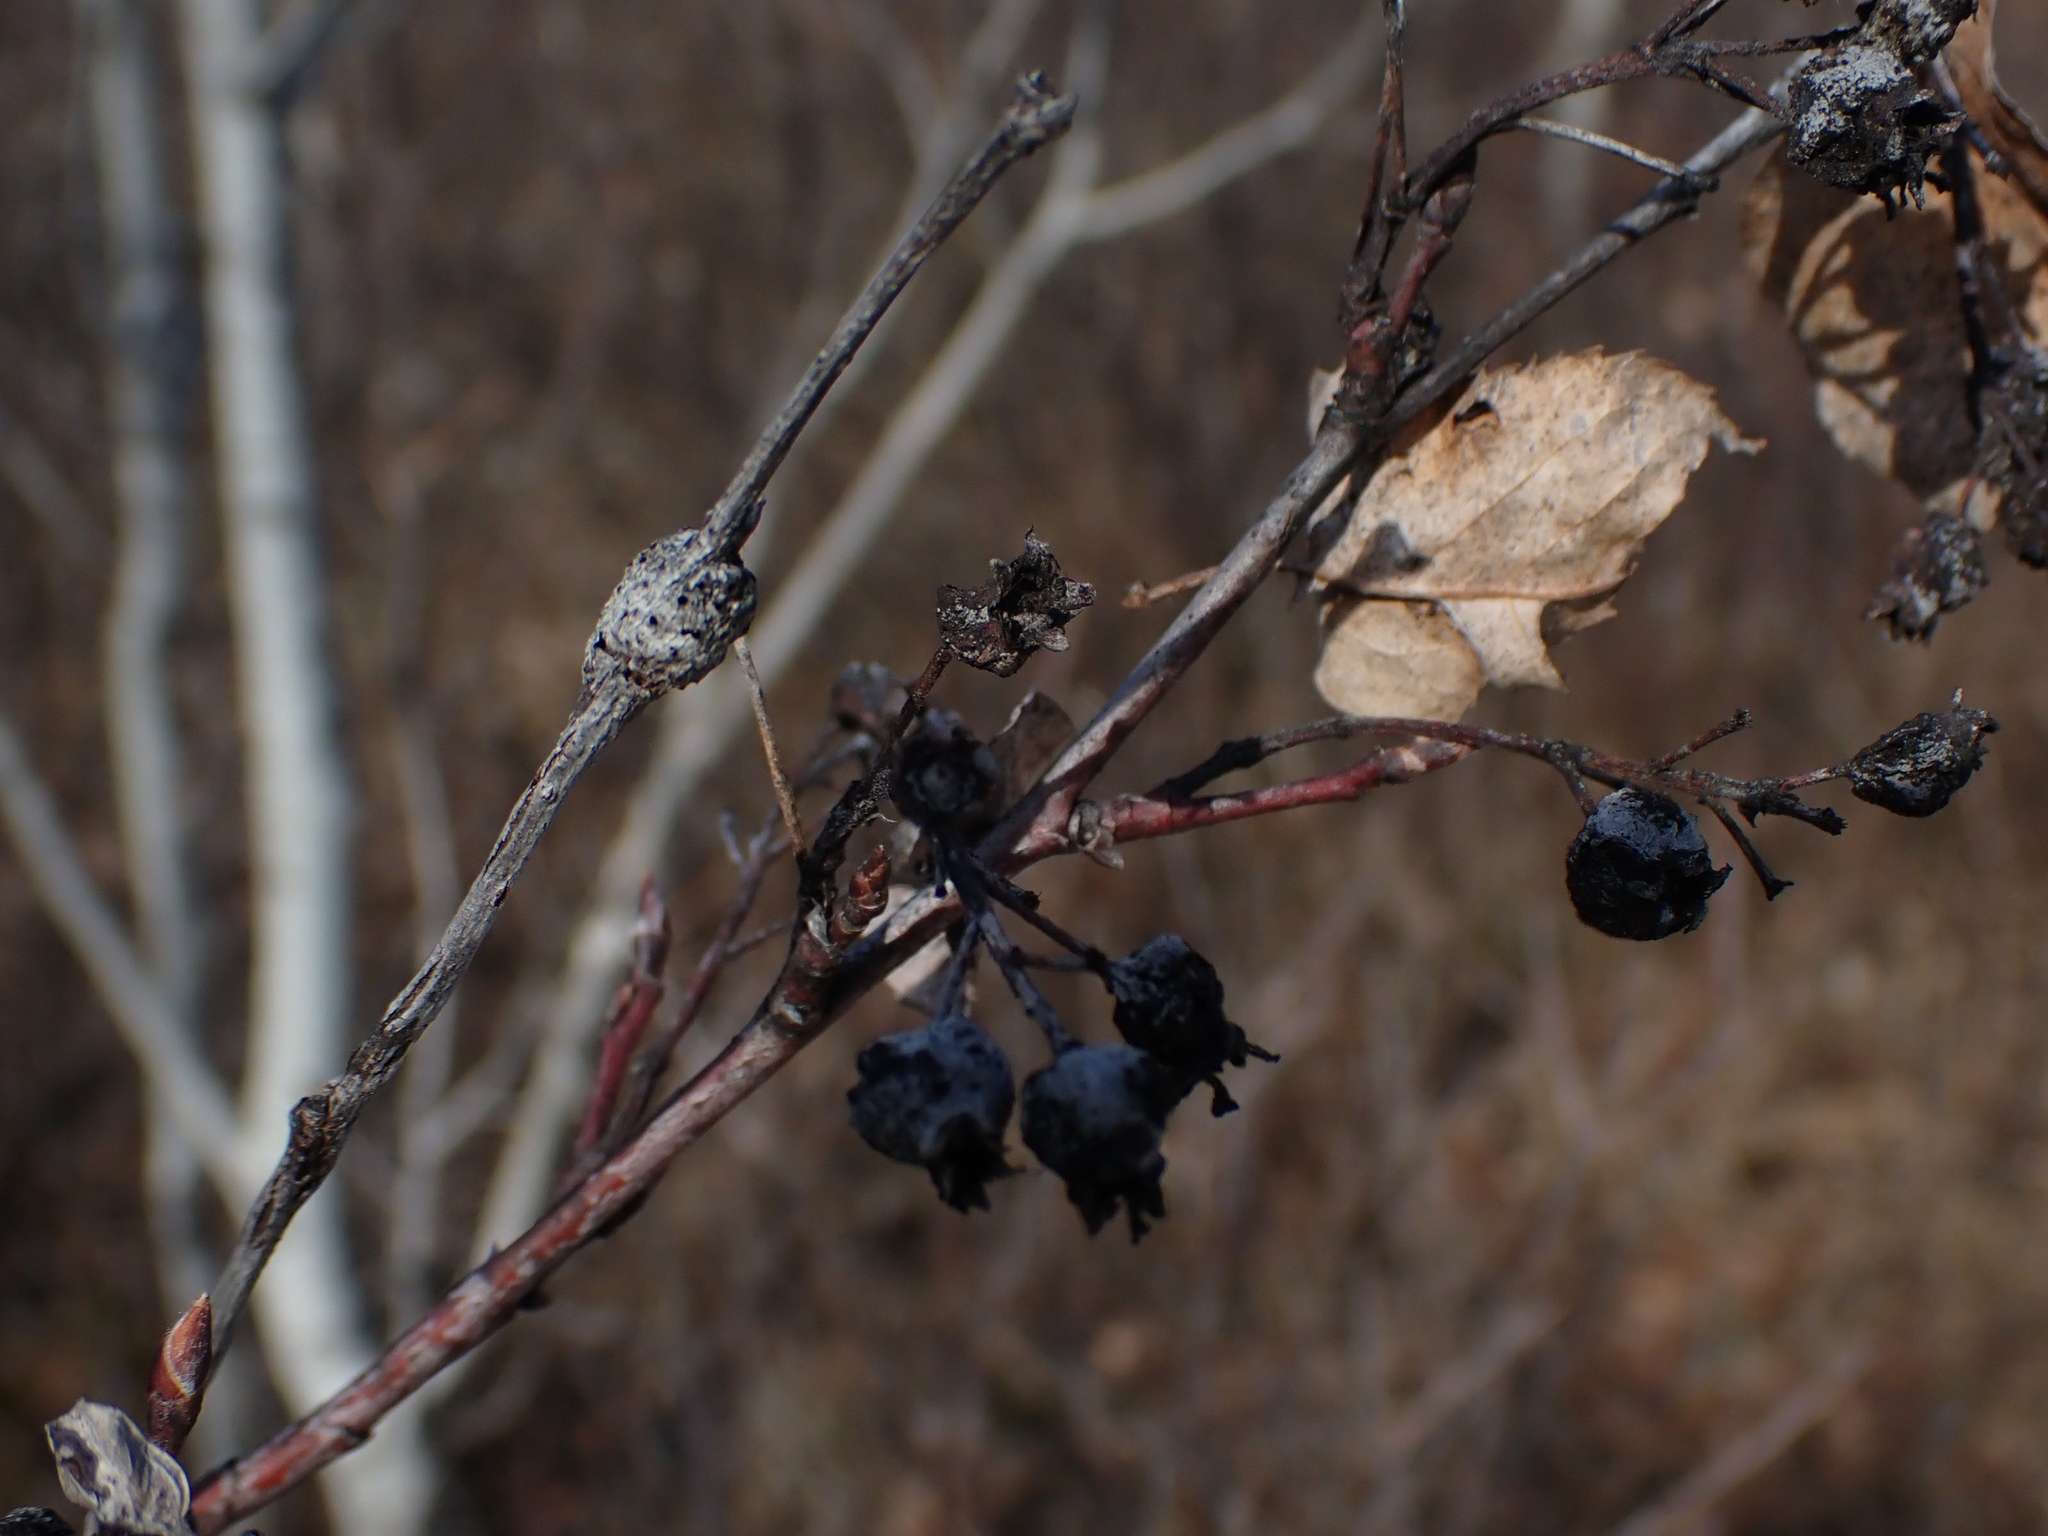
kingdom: Plantae
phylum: Tracheophyta
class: Magnoliopsida
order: Rosales
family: Rosaceae
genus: Amelanchier
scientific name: Amelanchier alnifolia
